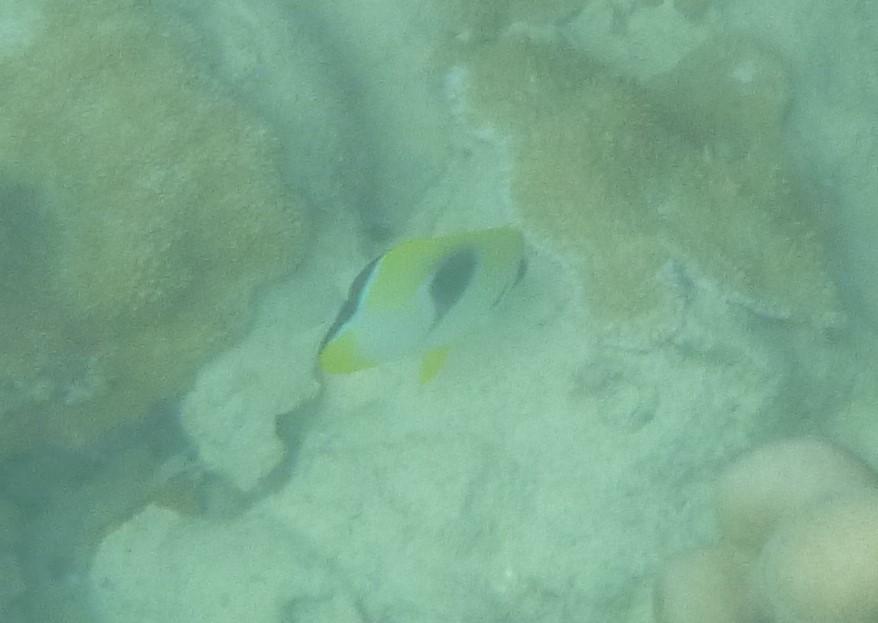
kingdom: Animalia
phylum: Chordata
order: Perciformes
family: Chaetodontidae
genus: Chaetodon
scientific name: Chaetodon unimaculatus
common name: Teardrop butterflyfish
